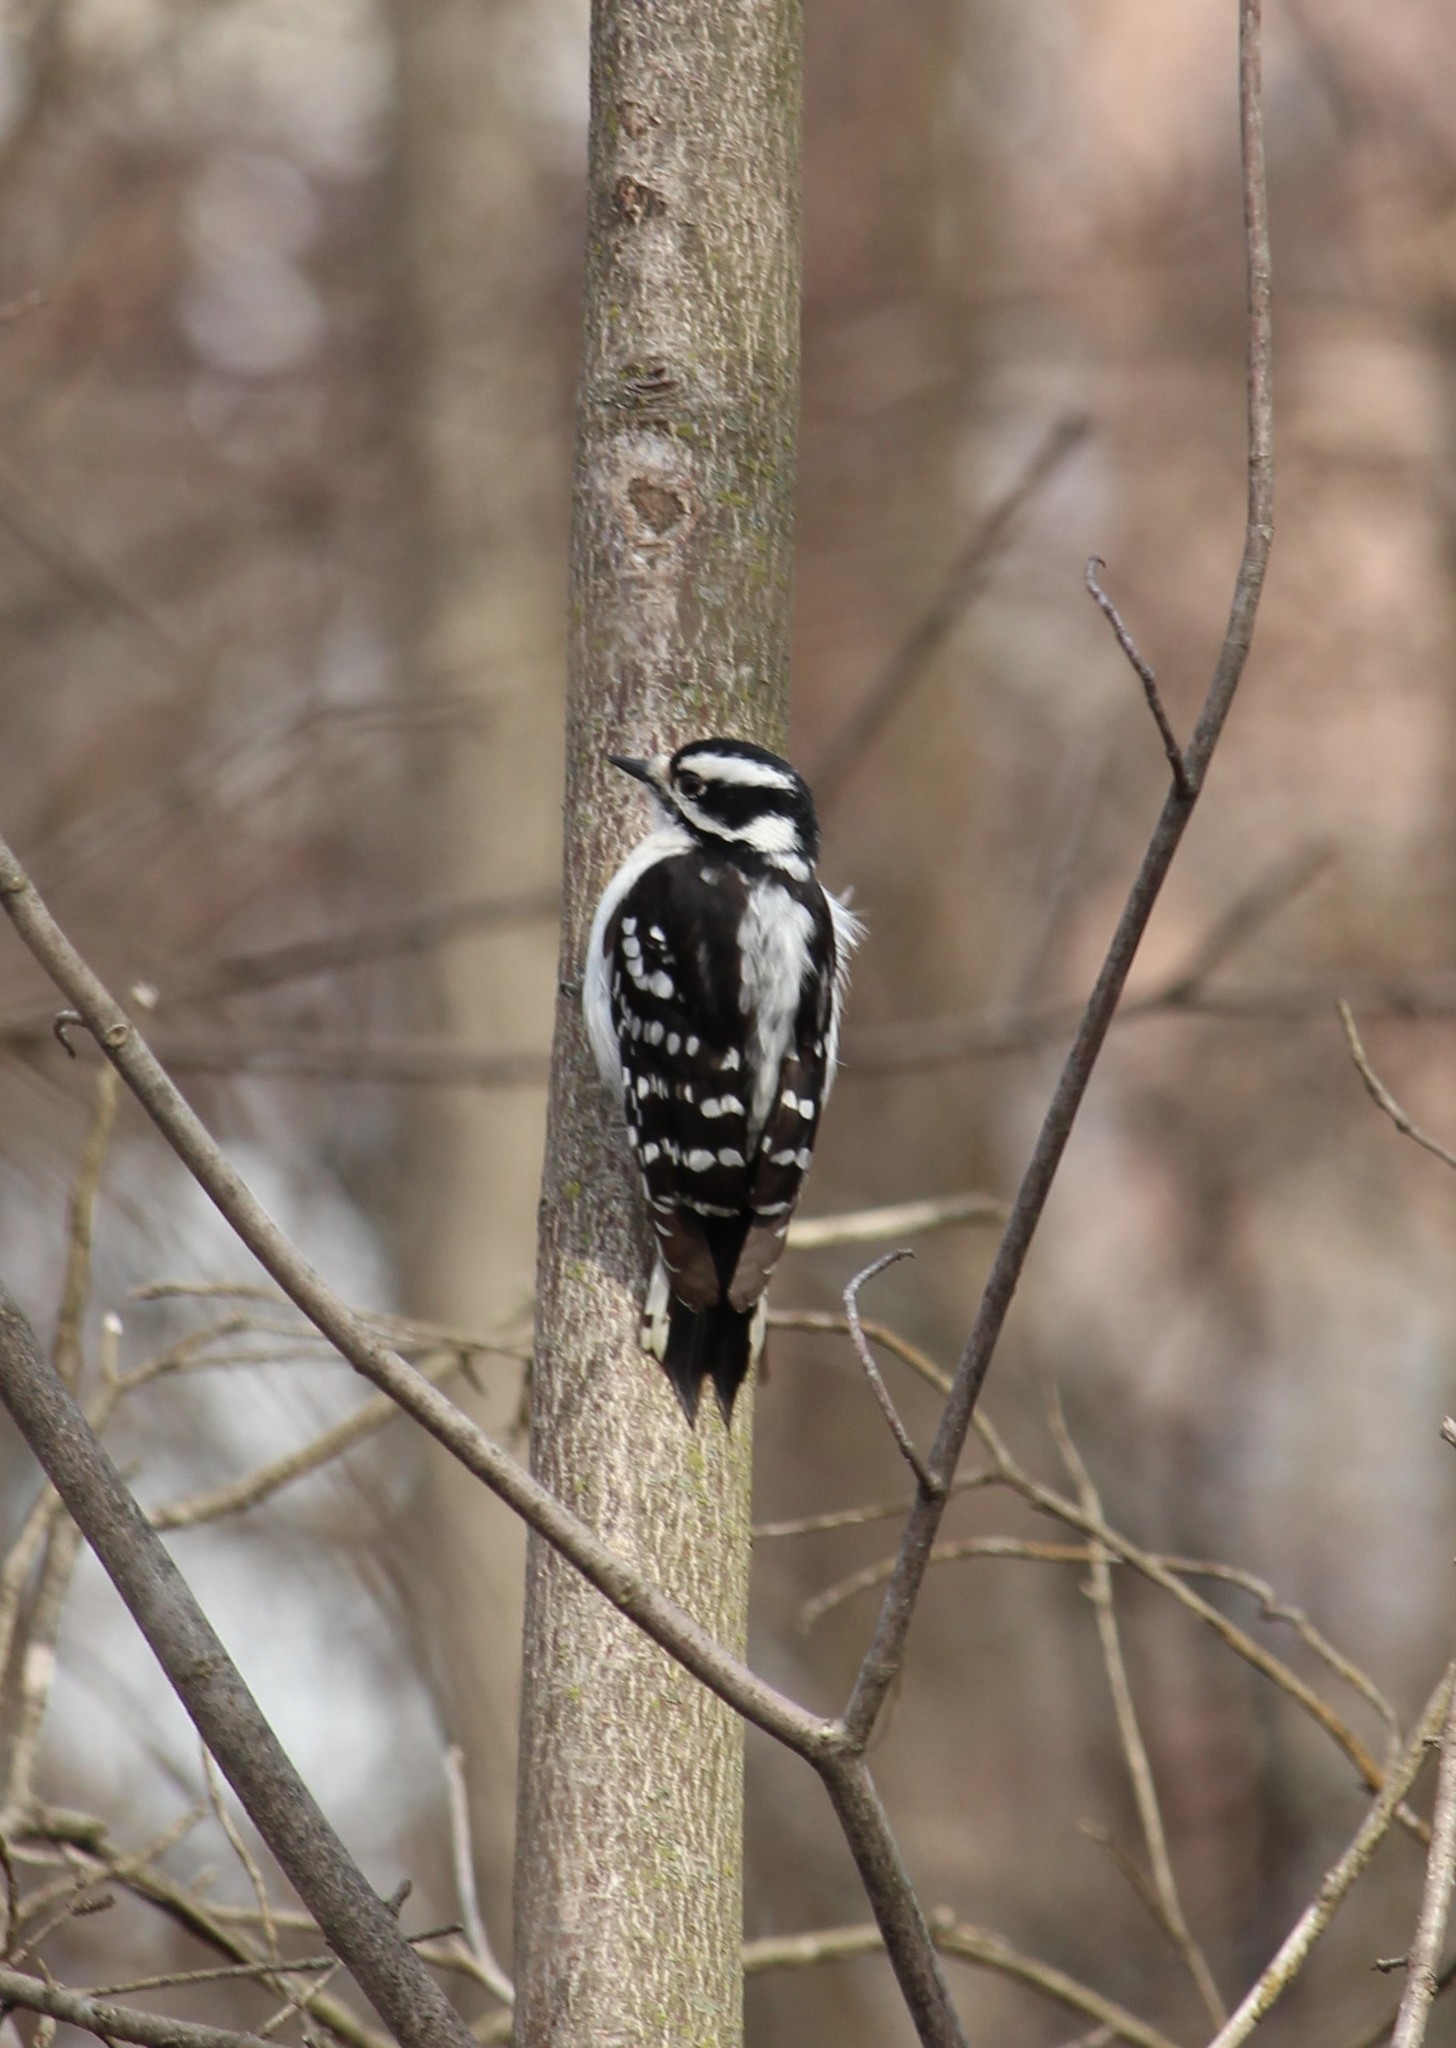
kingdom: Animalia
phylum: Chordata
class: Aves
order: Piciformes
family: Picidae
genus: Dryobates
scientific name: Dryobates pubescens
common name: Downy woodpecker
